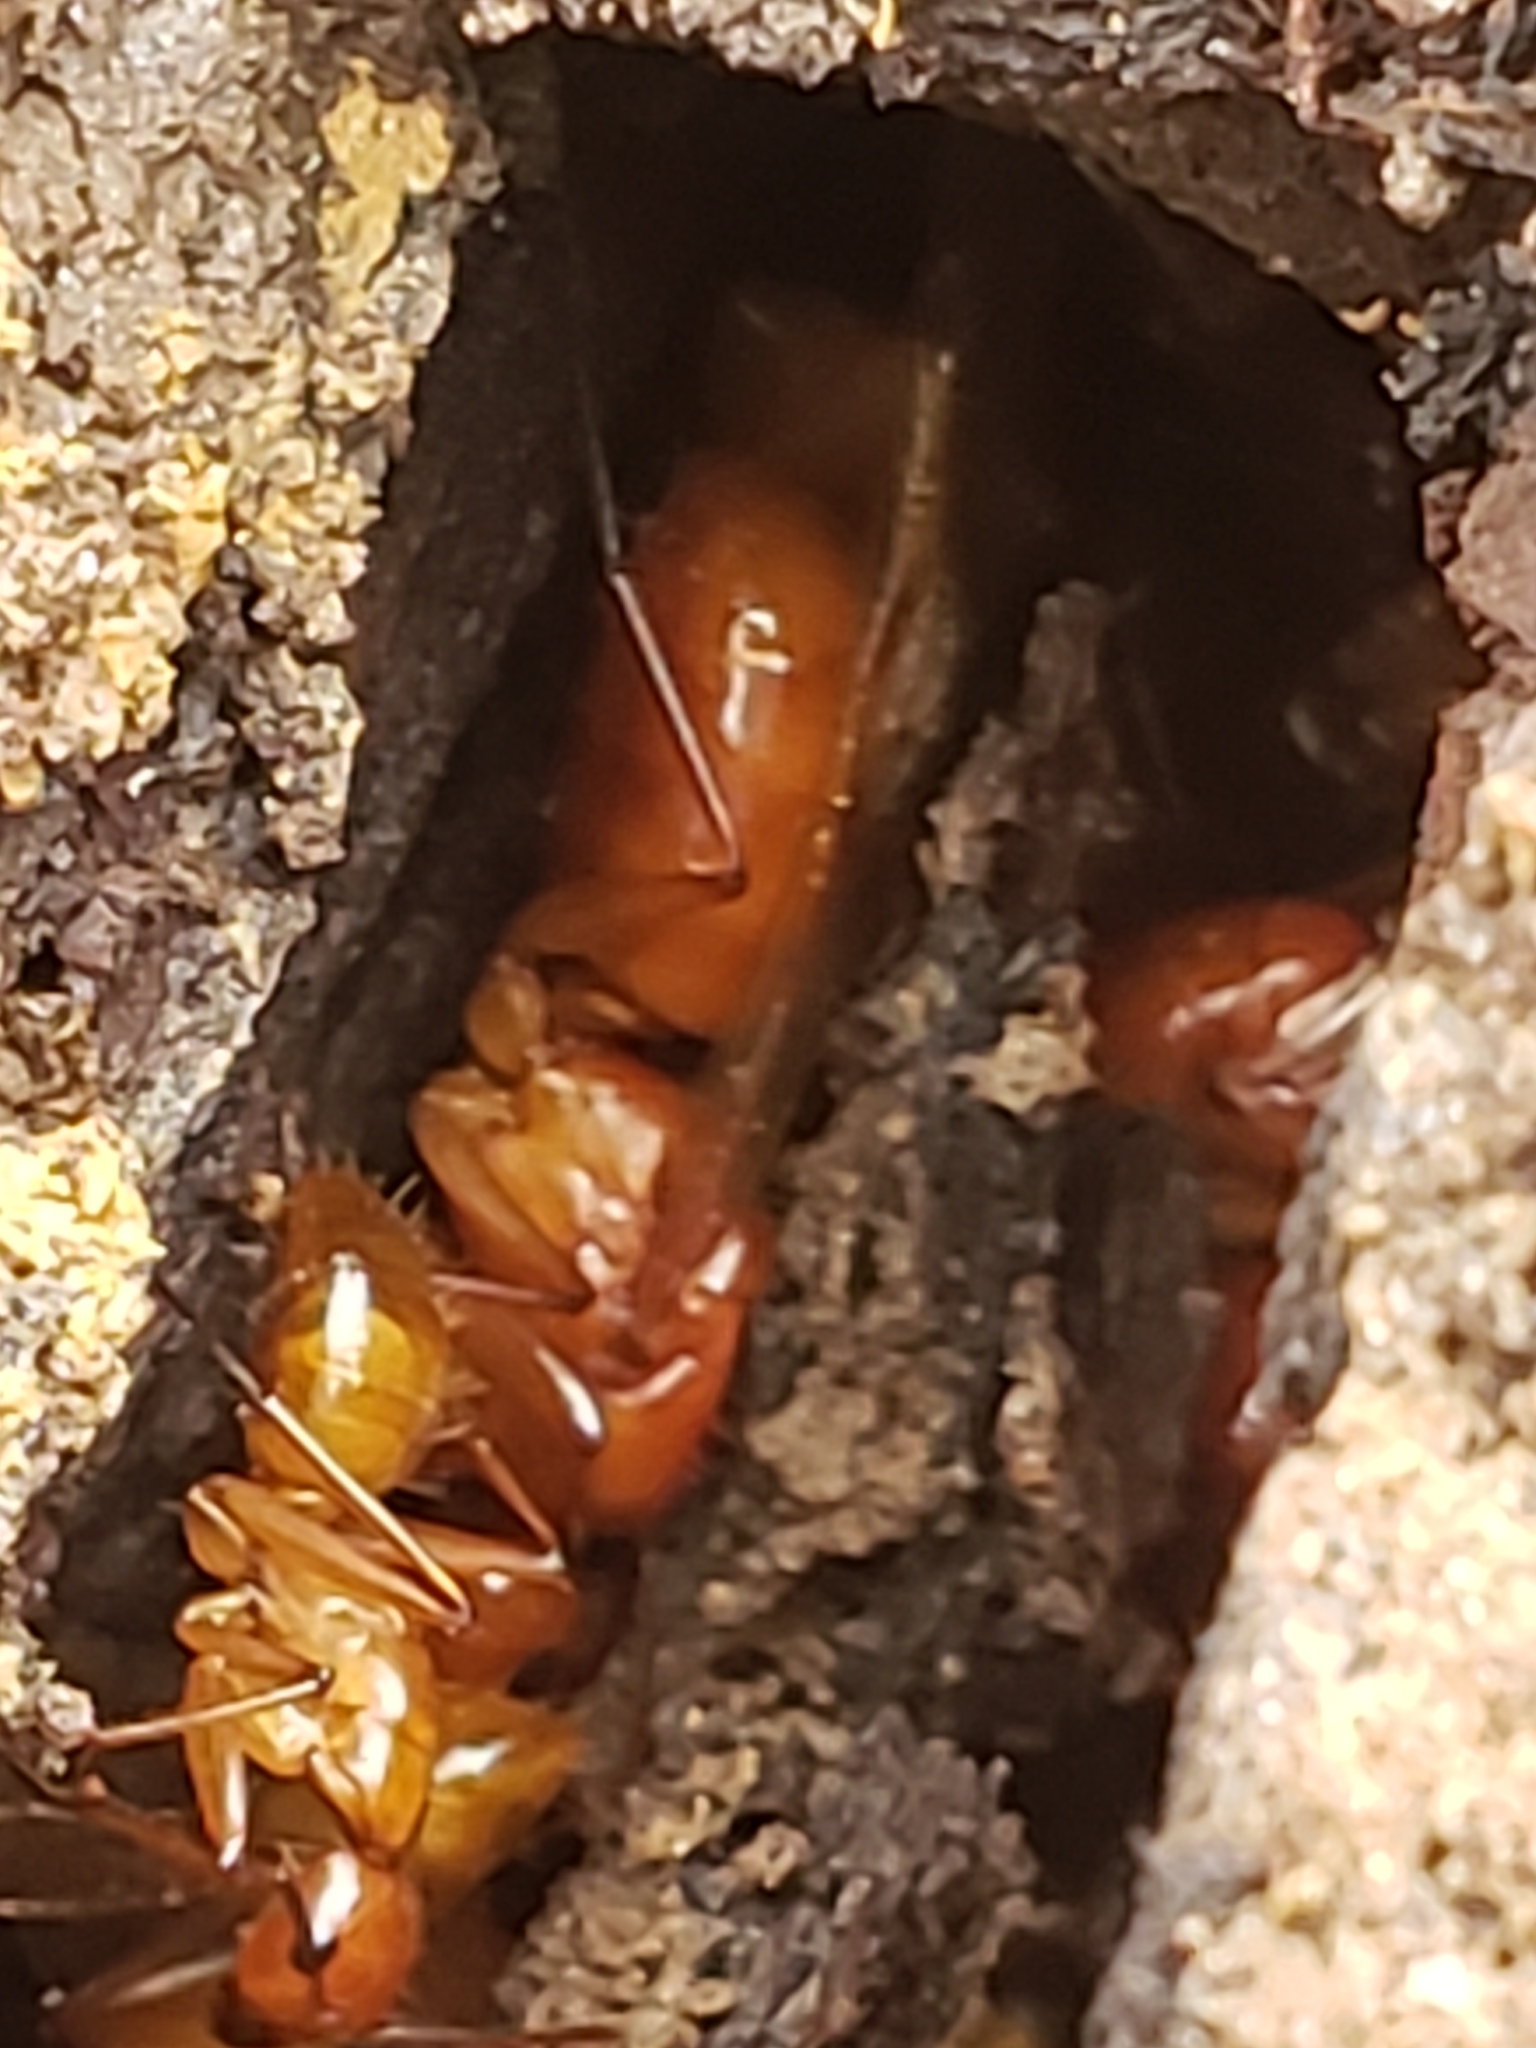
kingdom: Animalia
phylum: Arthropoda
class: Insecta
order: Hymenoptera
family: Formicidae
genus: Camponotus
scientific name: Camponotus castaneus
